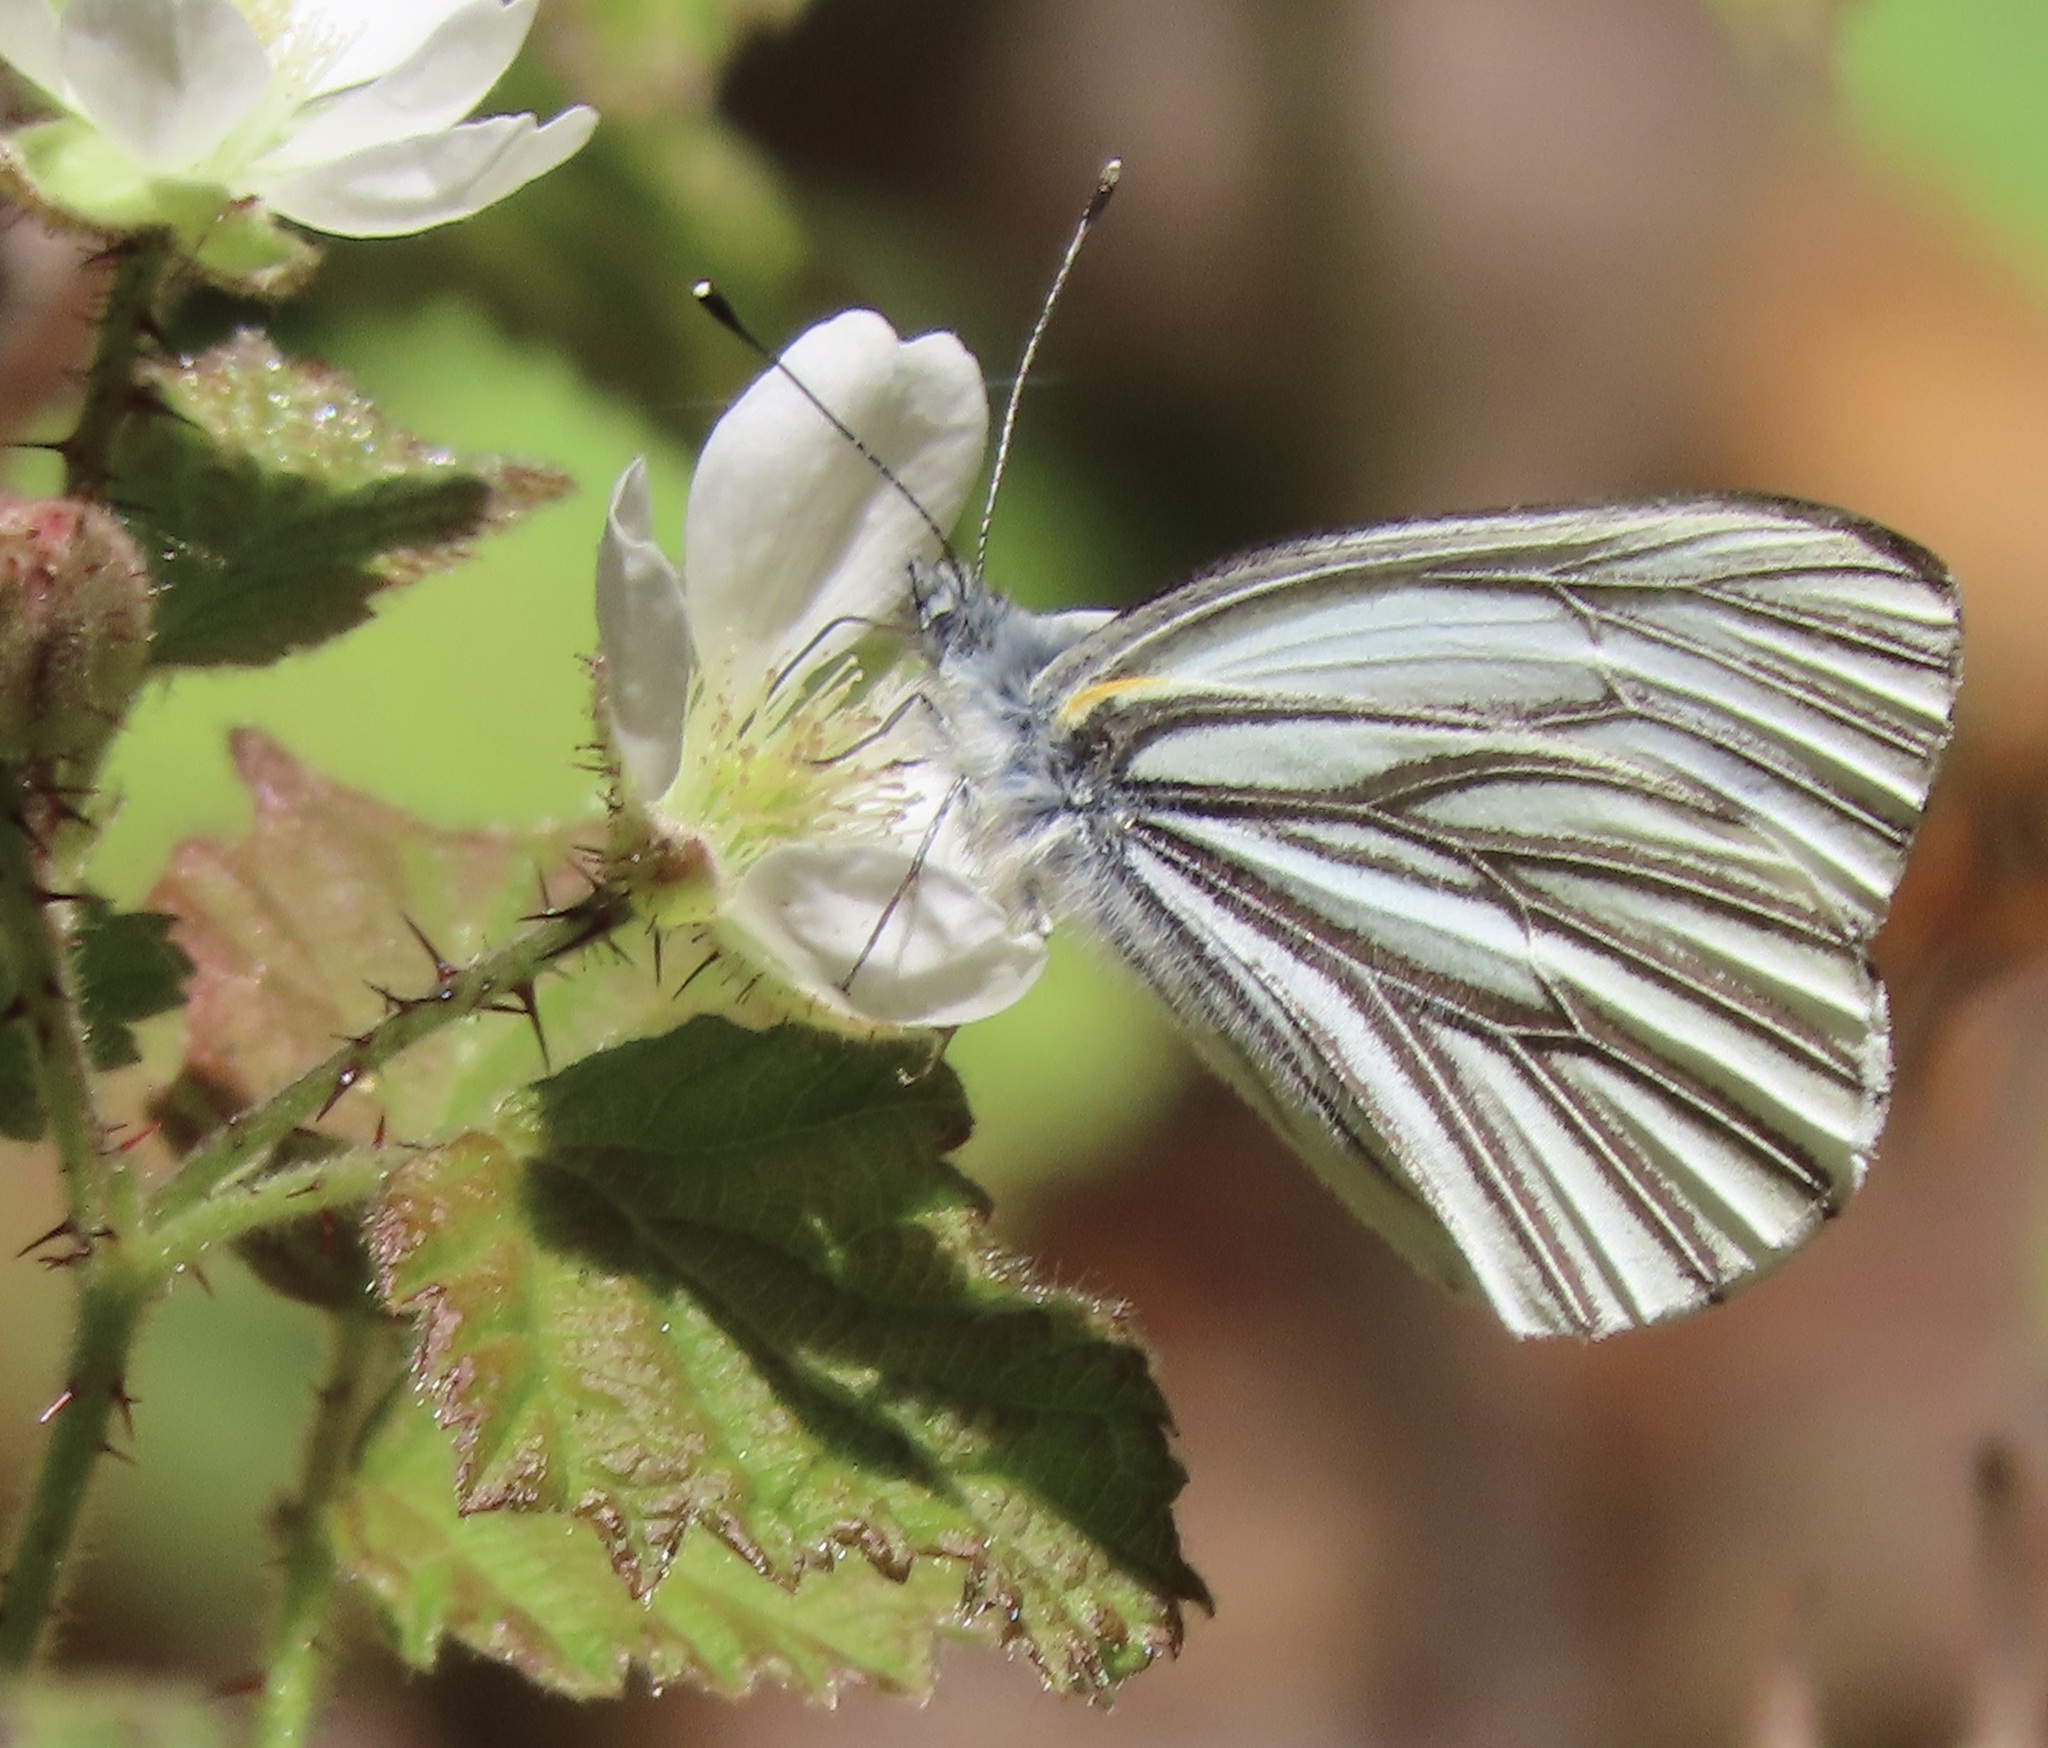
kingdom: Animalia
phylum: Arthropoda
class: Insecta
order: Lepidoptera
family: Pieridae
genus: Pieris
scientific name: Pieris marginalis
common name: Margined white
